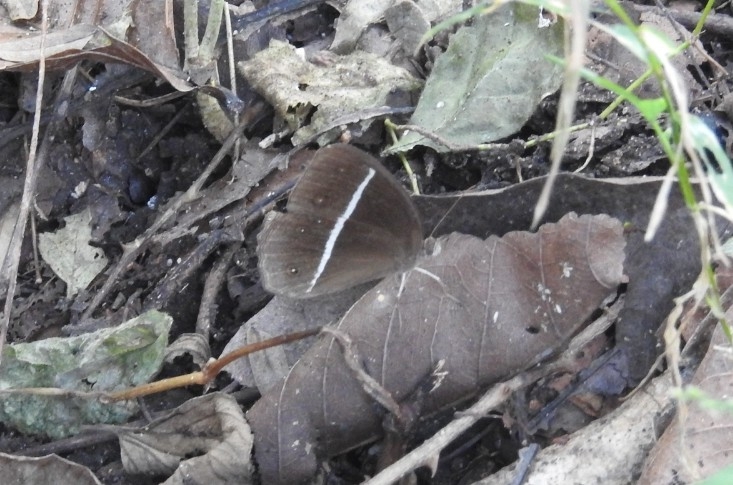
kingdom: Animalia
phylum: Arthropoda
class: Insecta
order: Lepidoptera
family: Nymphalidae
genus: Orsotriaena
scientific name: Orsotriaena medus
